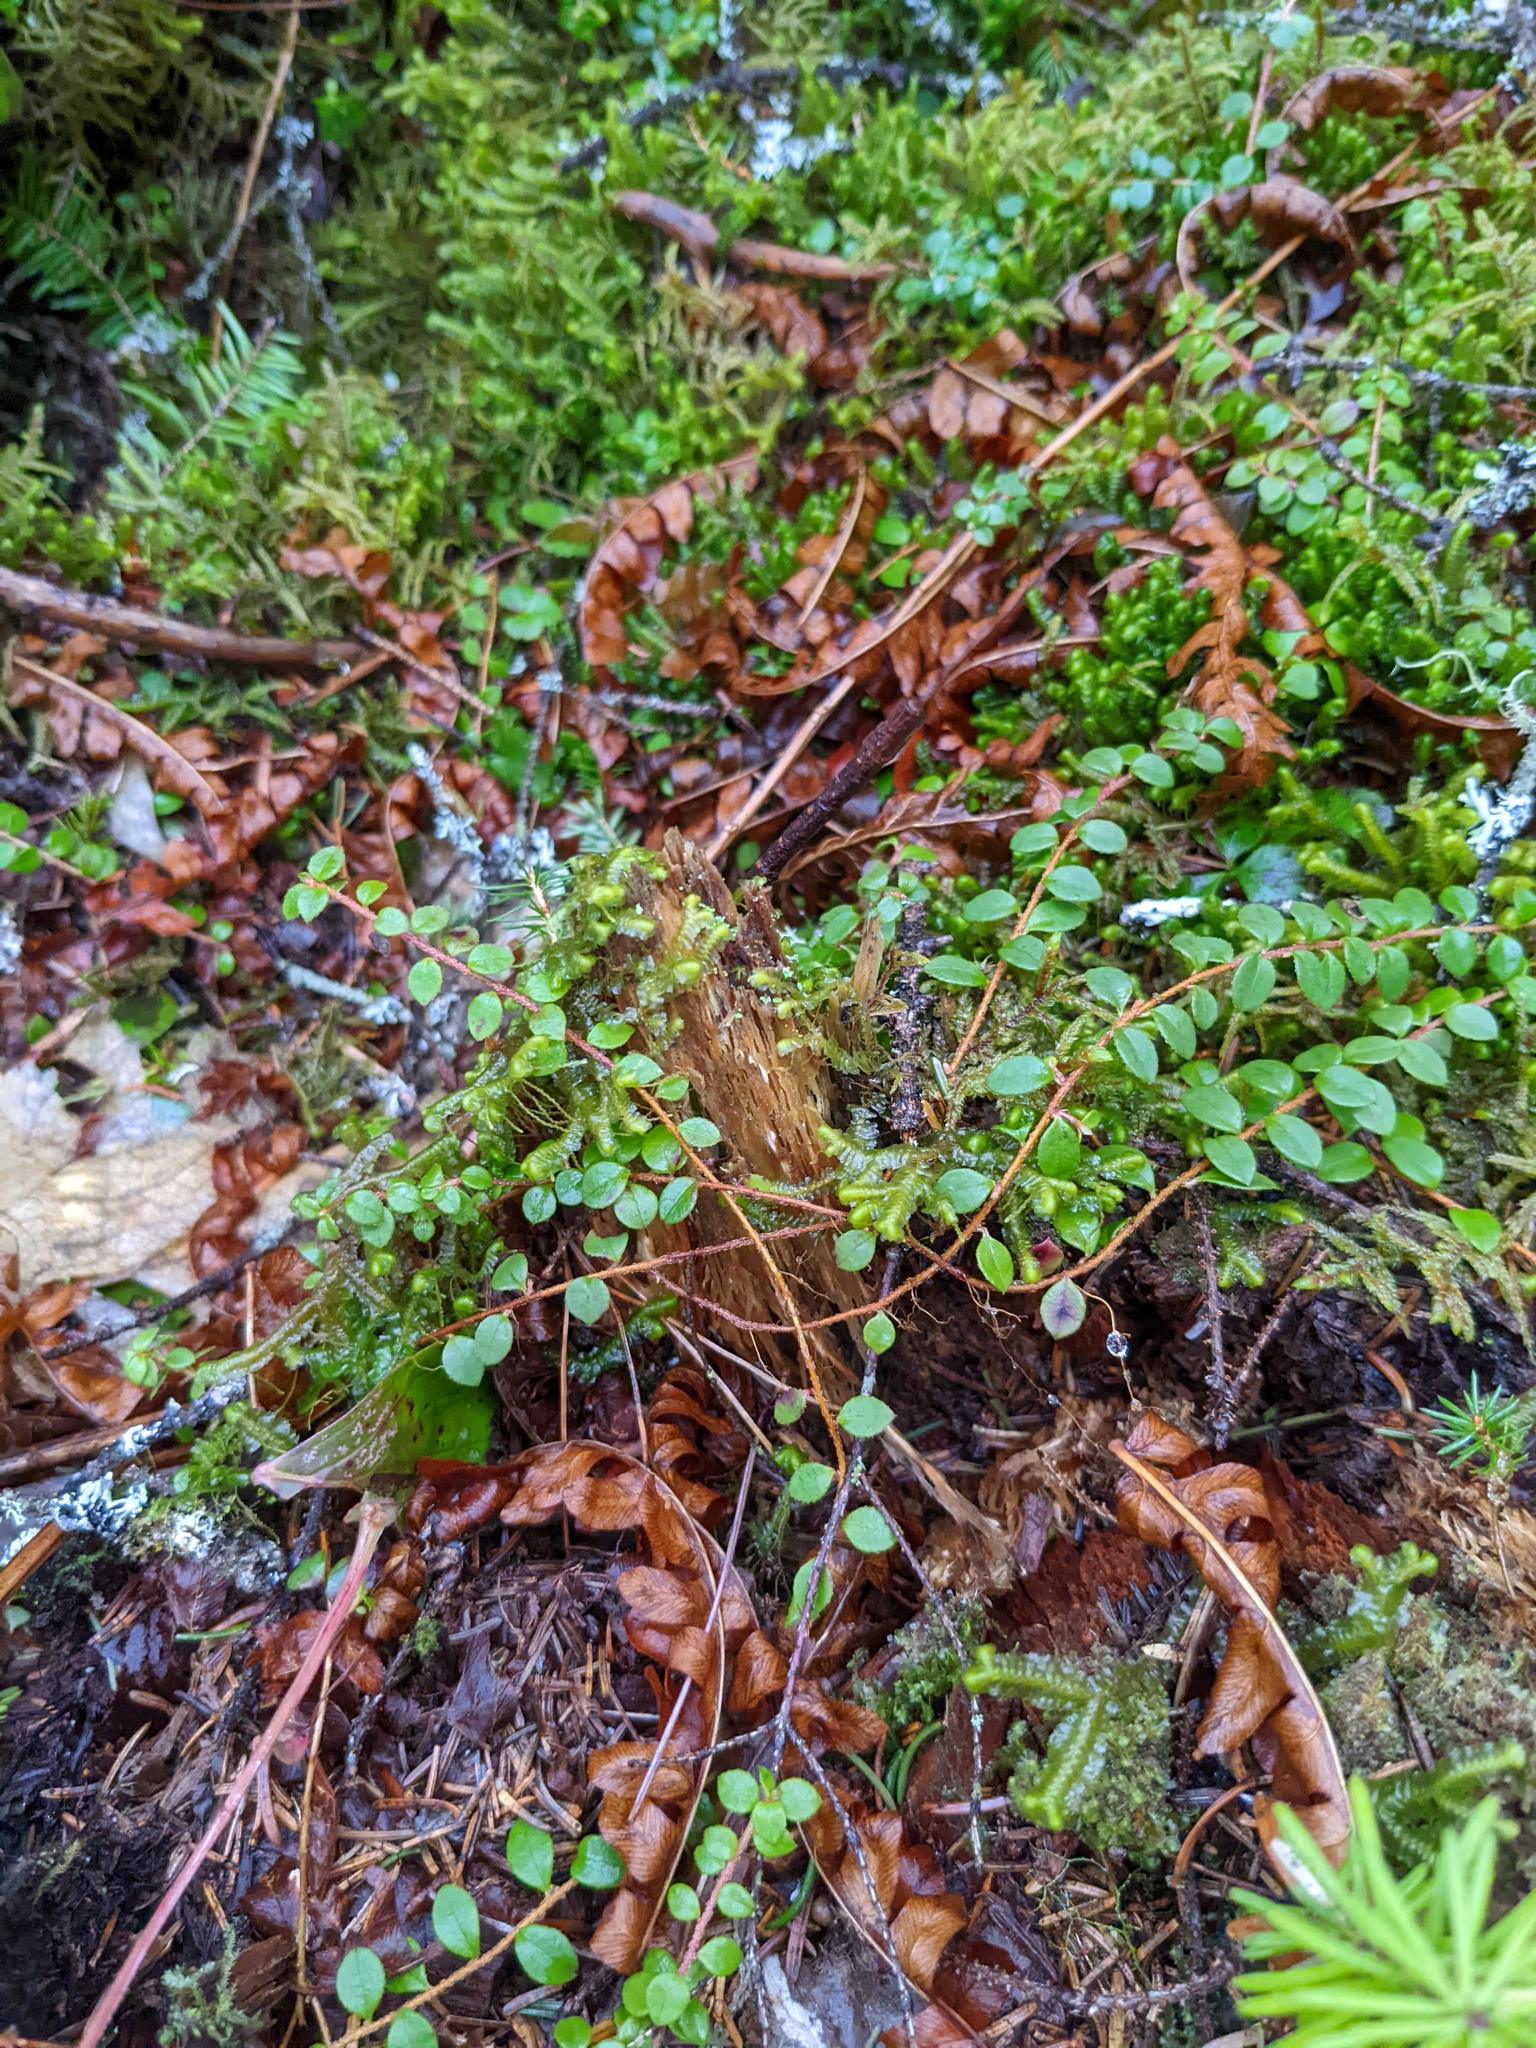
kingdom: Plantae
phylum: Tracheophyta
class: Magnoliopsida
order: Ericales
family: Ericaceae
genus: Gaultheria
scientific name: Gaultheria hispidula
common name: Cancer wintergreen
